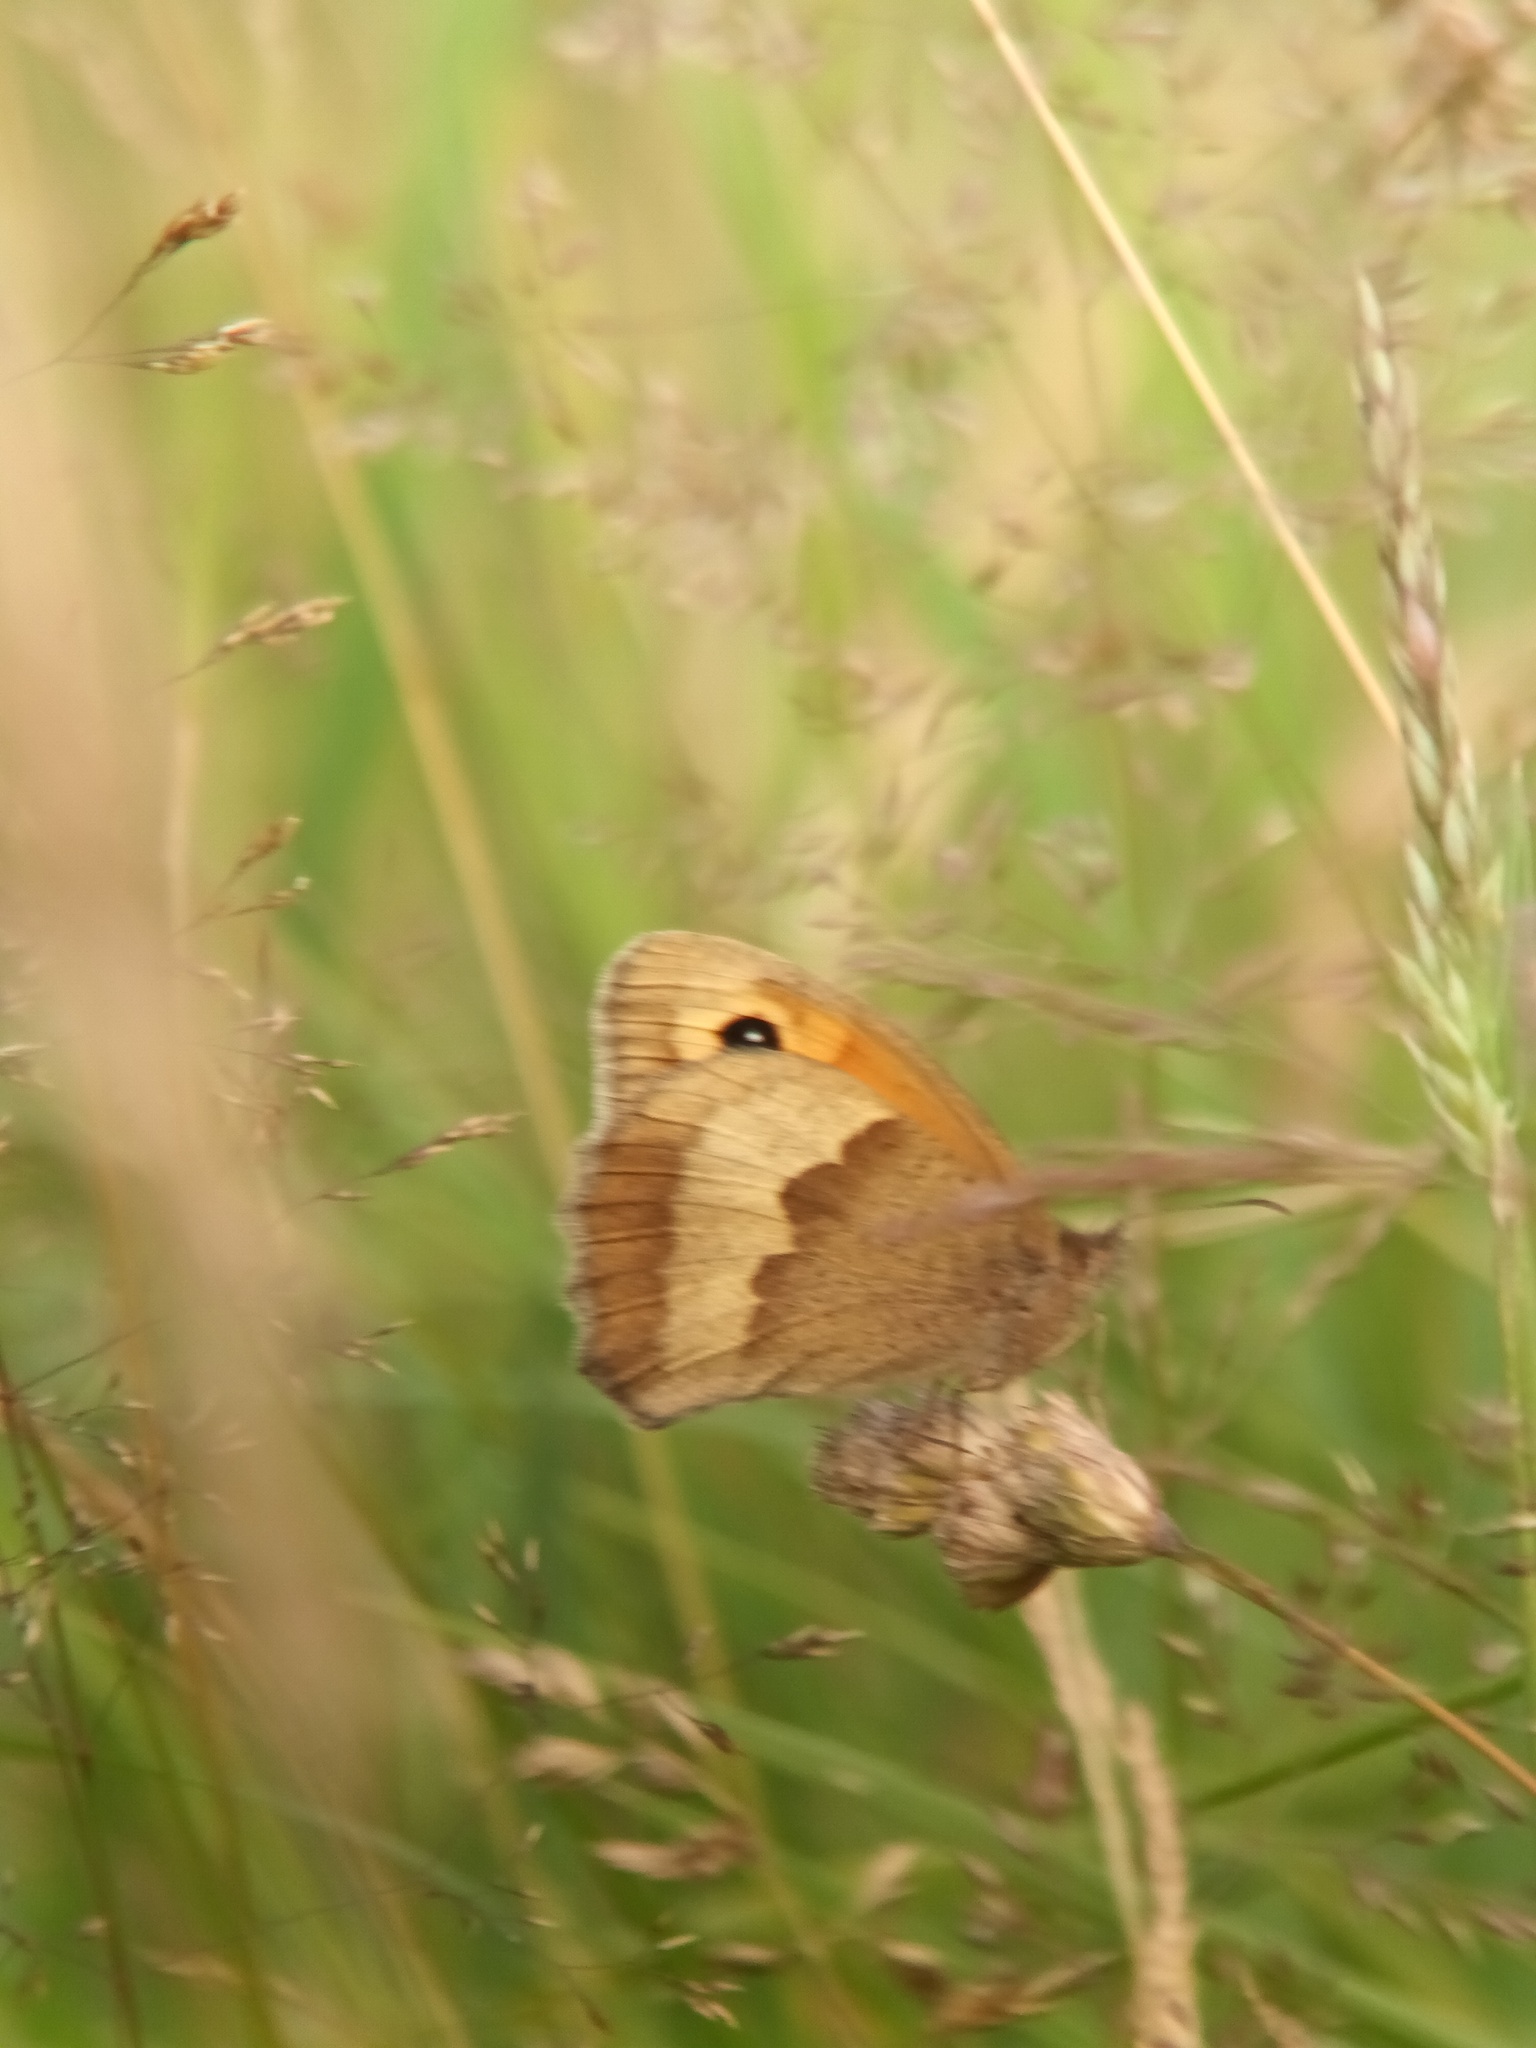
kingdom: Animalia
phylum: Arthropoda
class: Insecta
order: Lepidoptera
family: Nymphalidae
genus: Maniola
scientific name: Maniola jurtina
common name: Meadow brown
